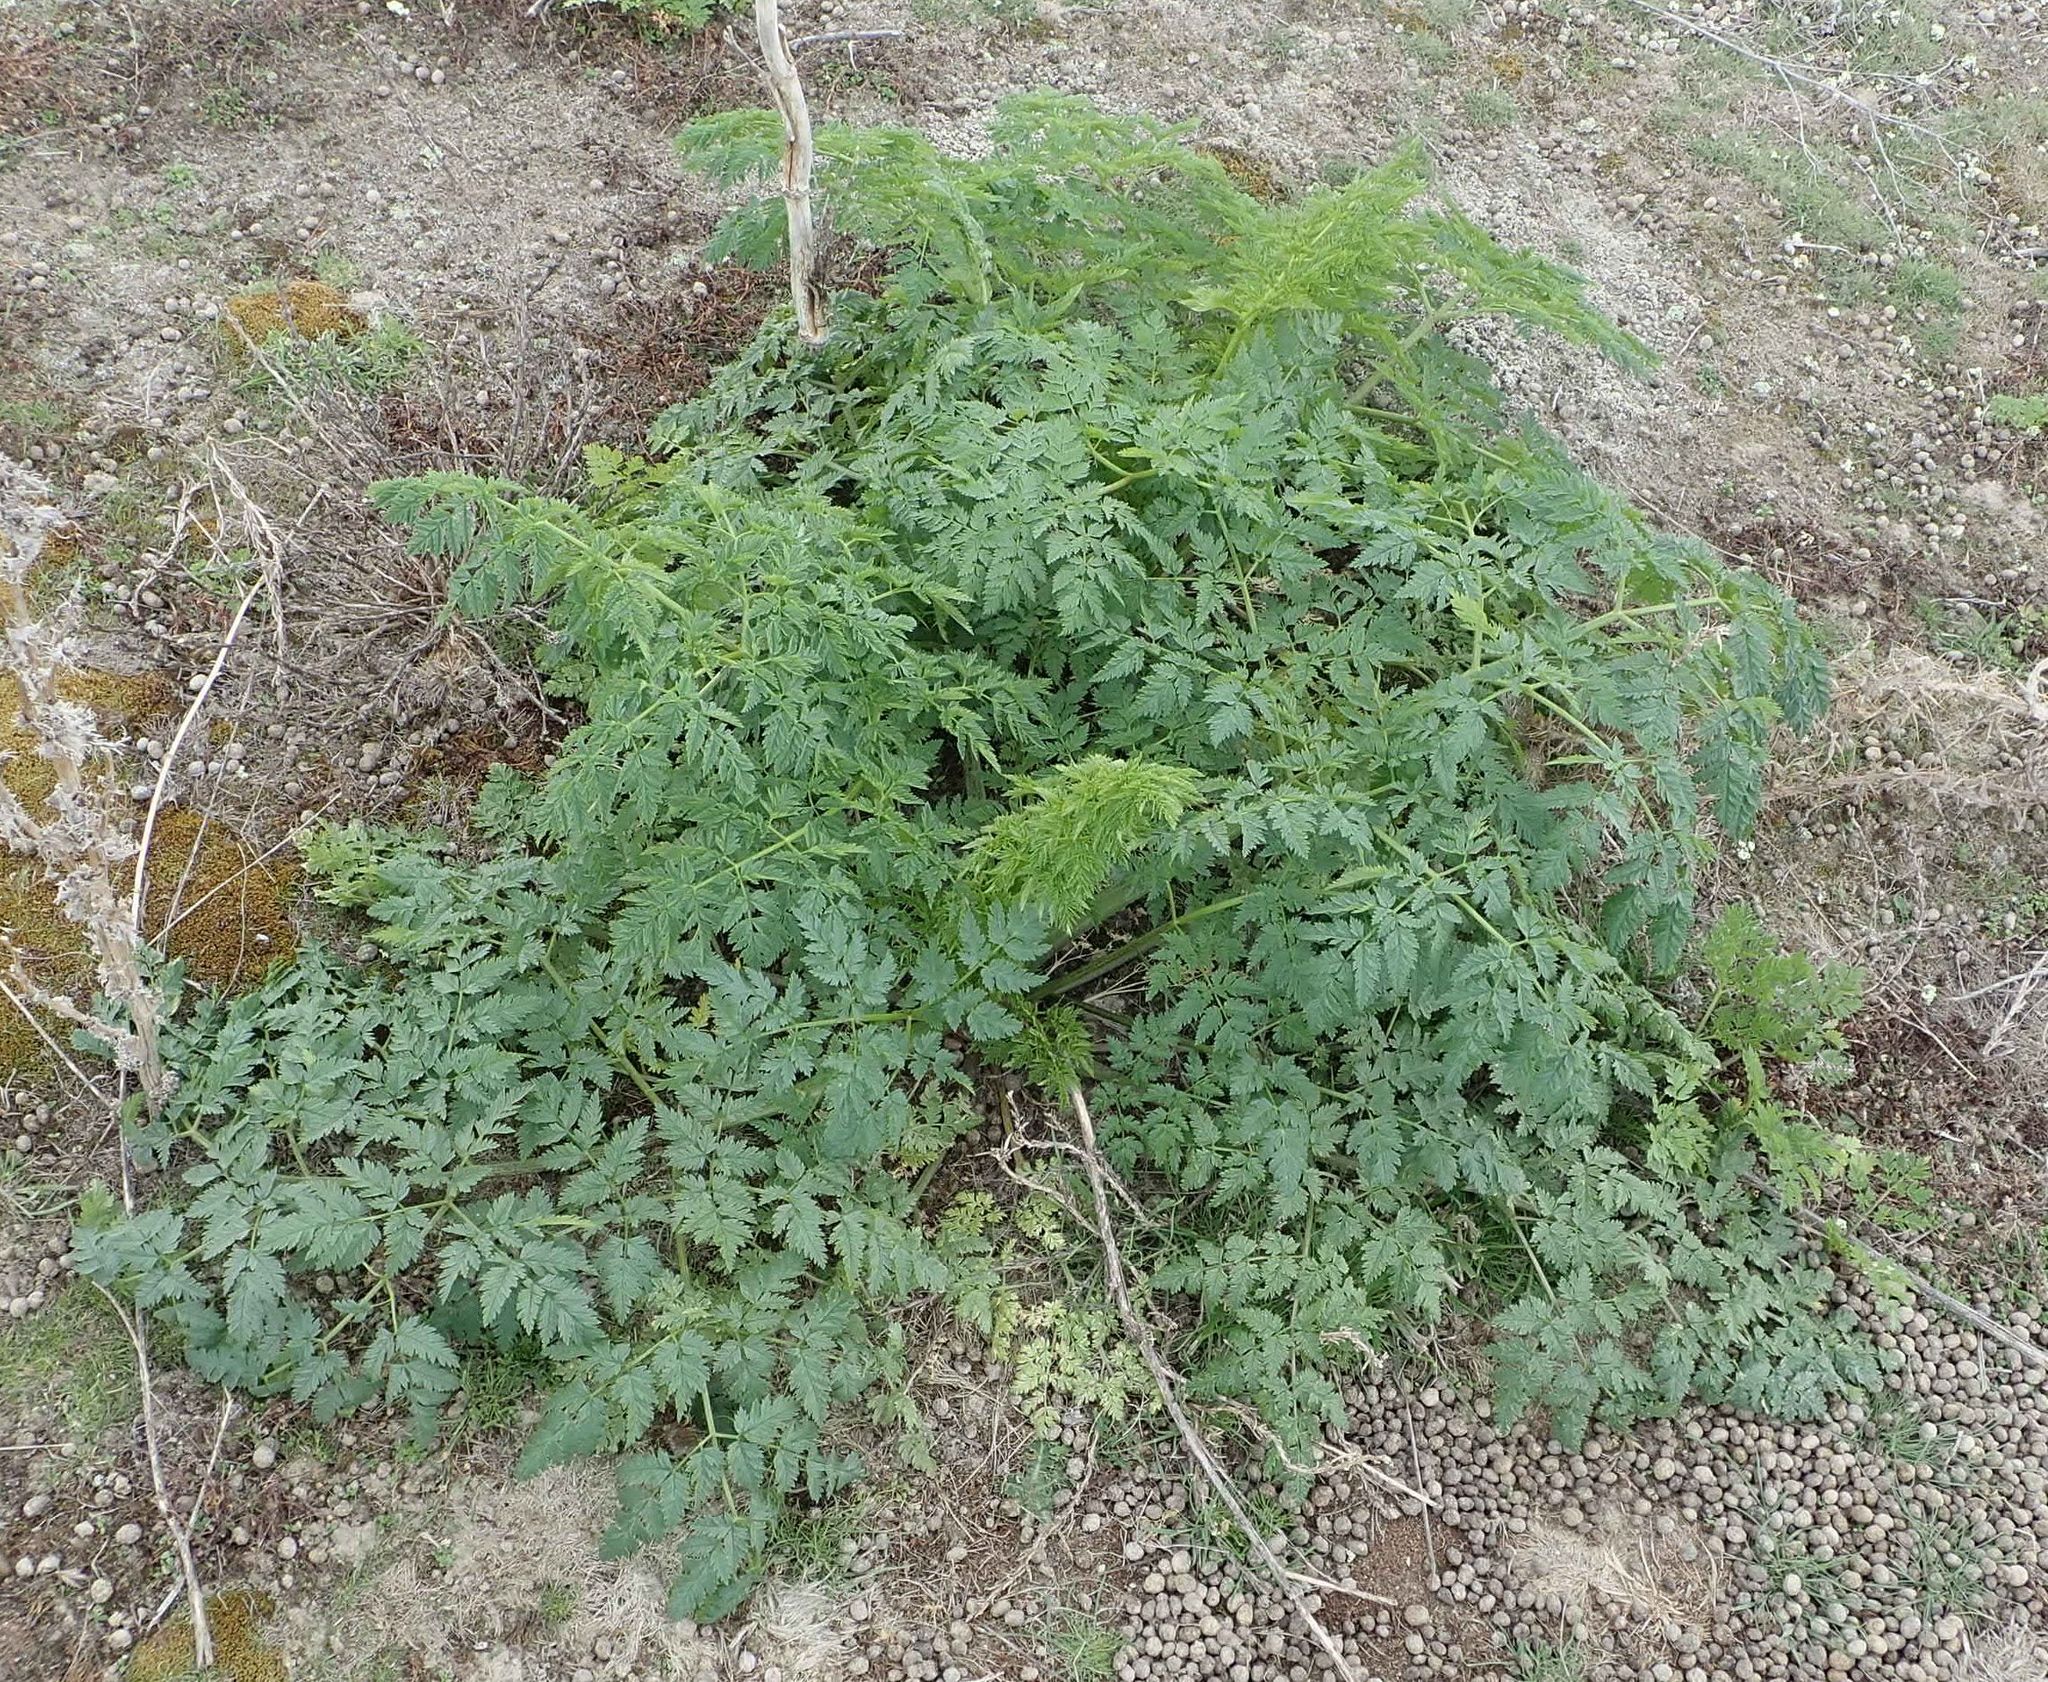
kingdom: Plantae
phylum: Tracheophyta
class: Magnoliopsida
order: Apiales
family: Apiaceae
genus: Conium
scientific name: Conium maculatum
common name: Hemlock
